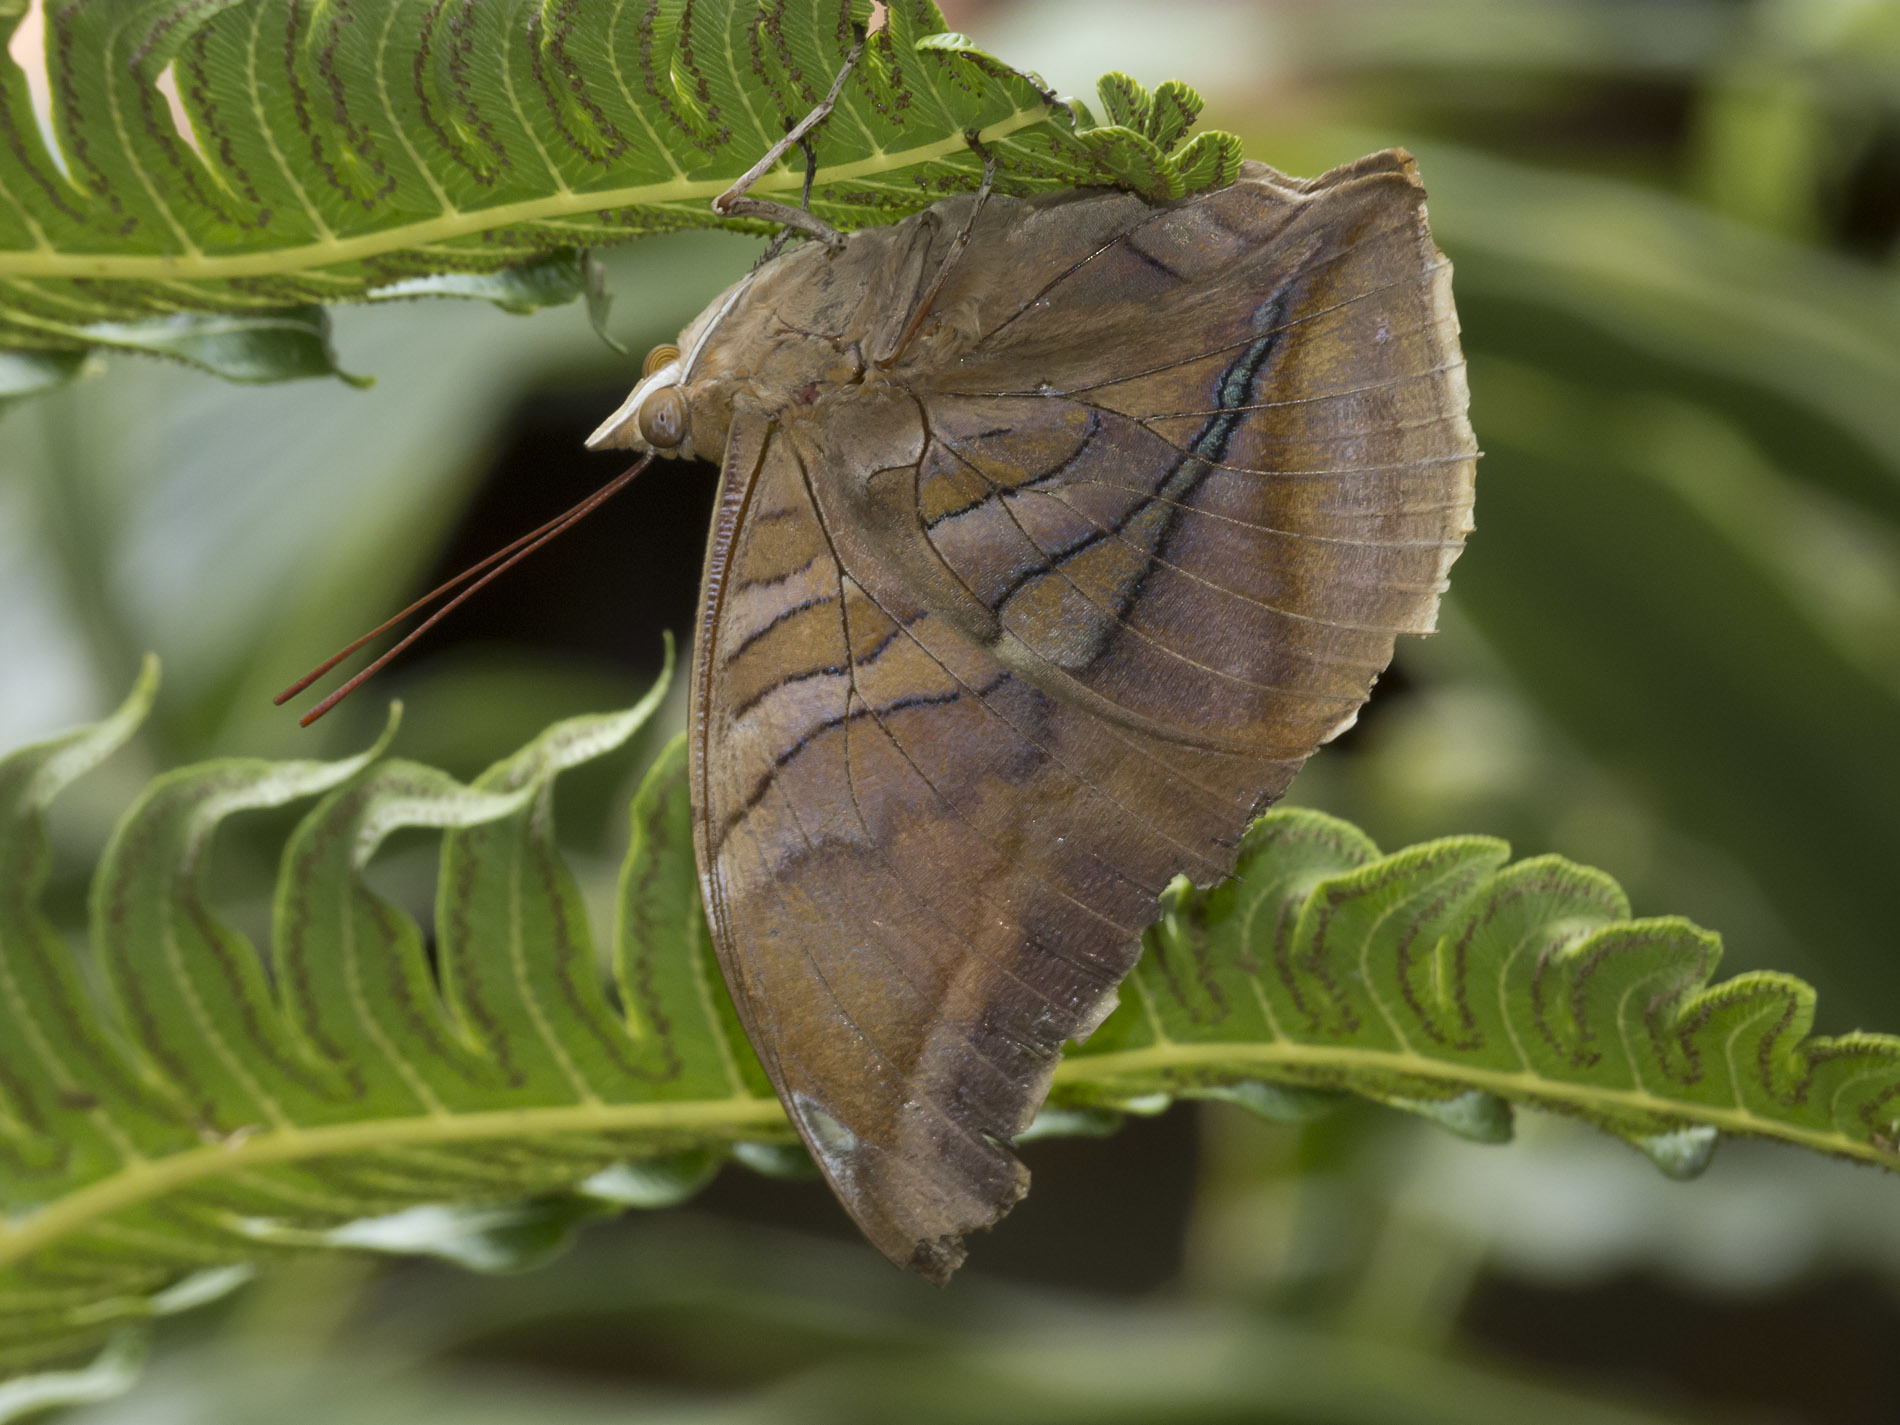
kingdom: Animalia
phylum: Arthropoda
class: Insecta
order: Lepidoptera
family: Nymphalidae
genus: Historis
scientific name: Historis odius
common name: Orion cecropian
